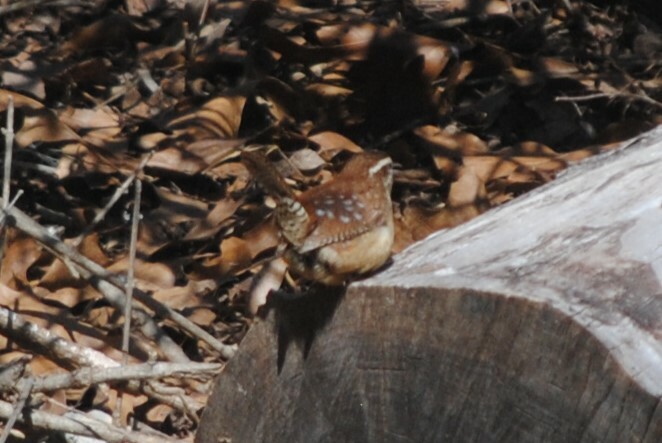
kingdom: Animalia
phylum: Chordata
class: Aves
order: Passeriformes
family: Troglodytidae
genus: Thryothorus
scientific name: Thryothorus ludovicianus
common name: Carolina wren
